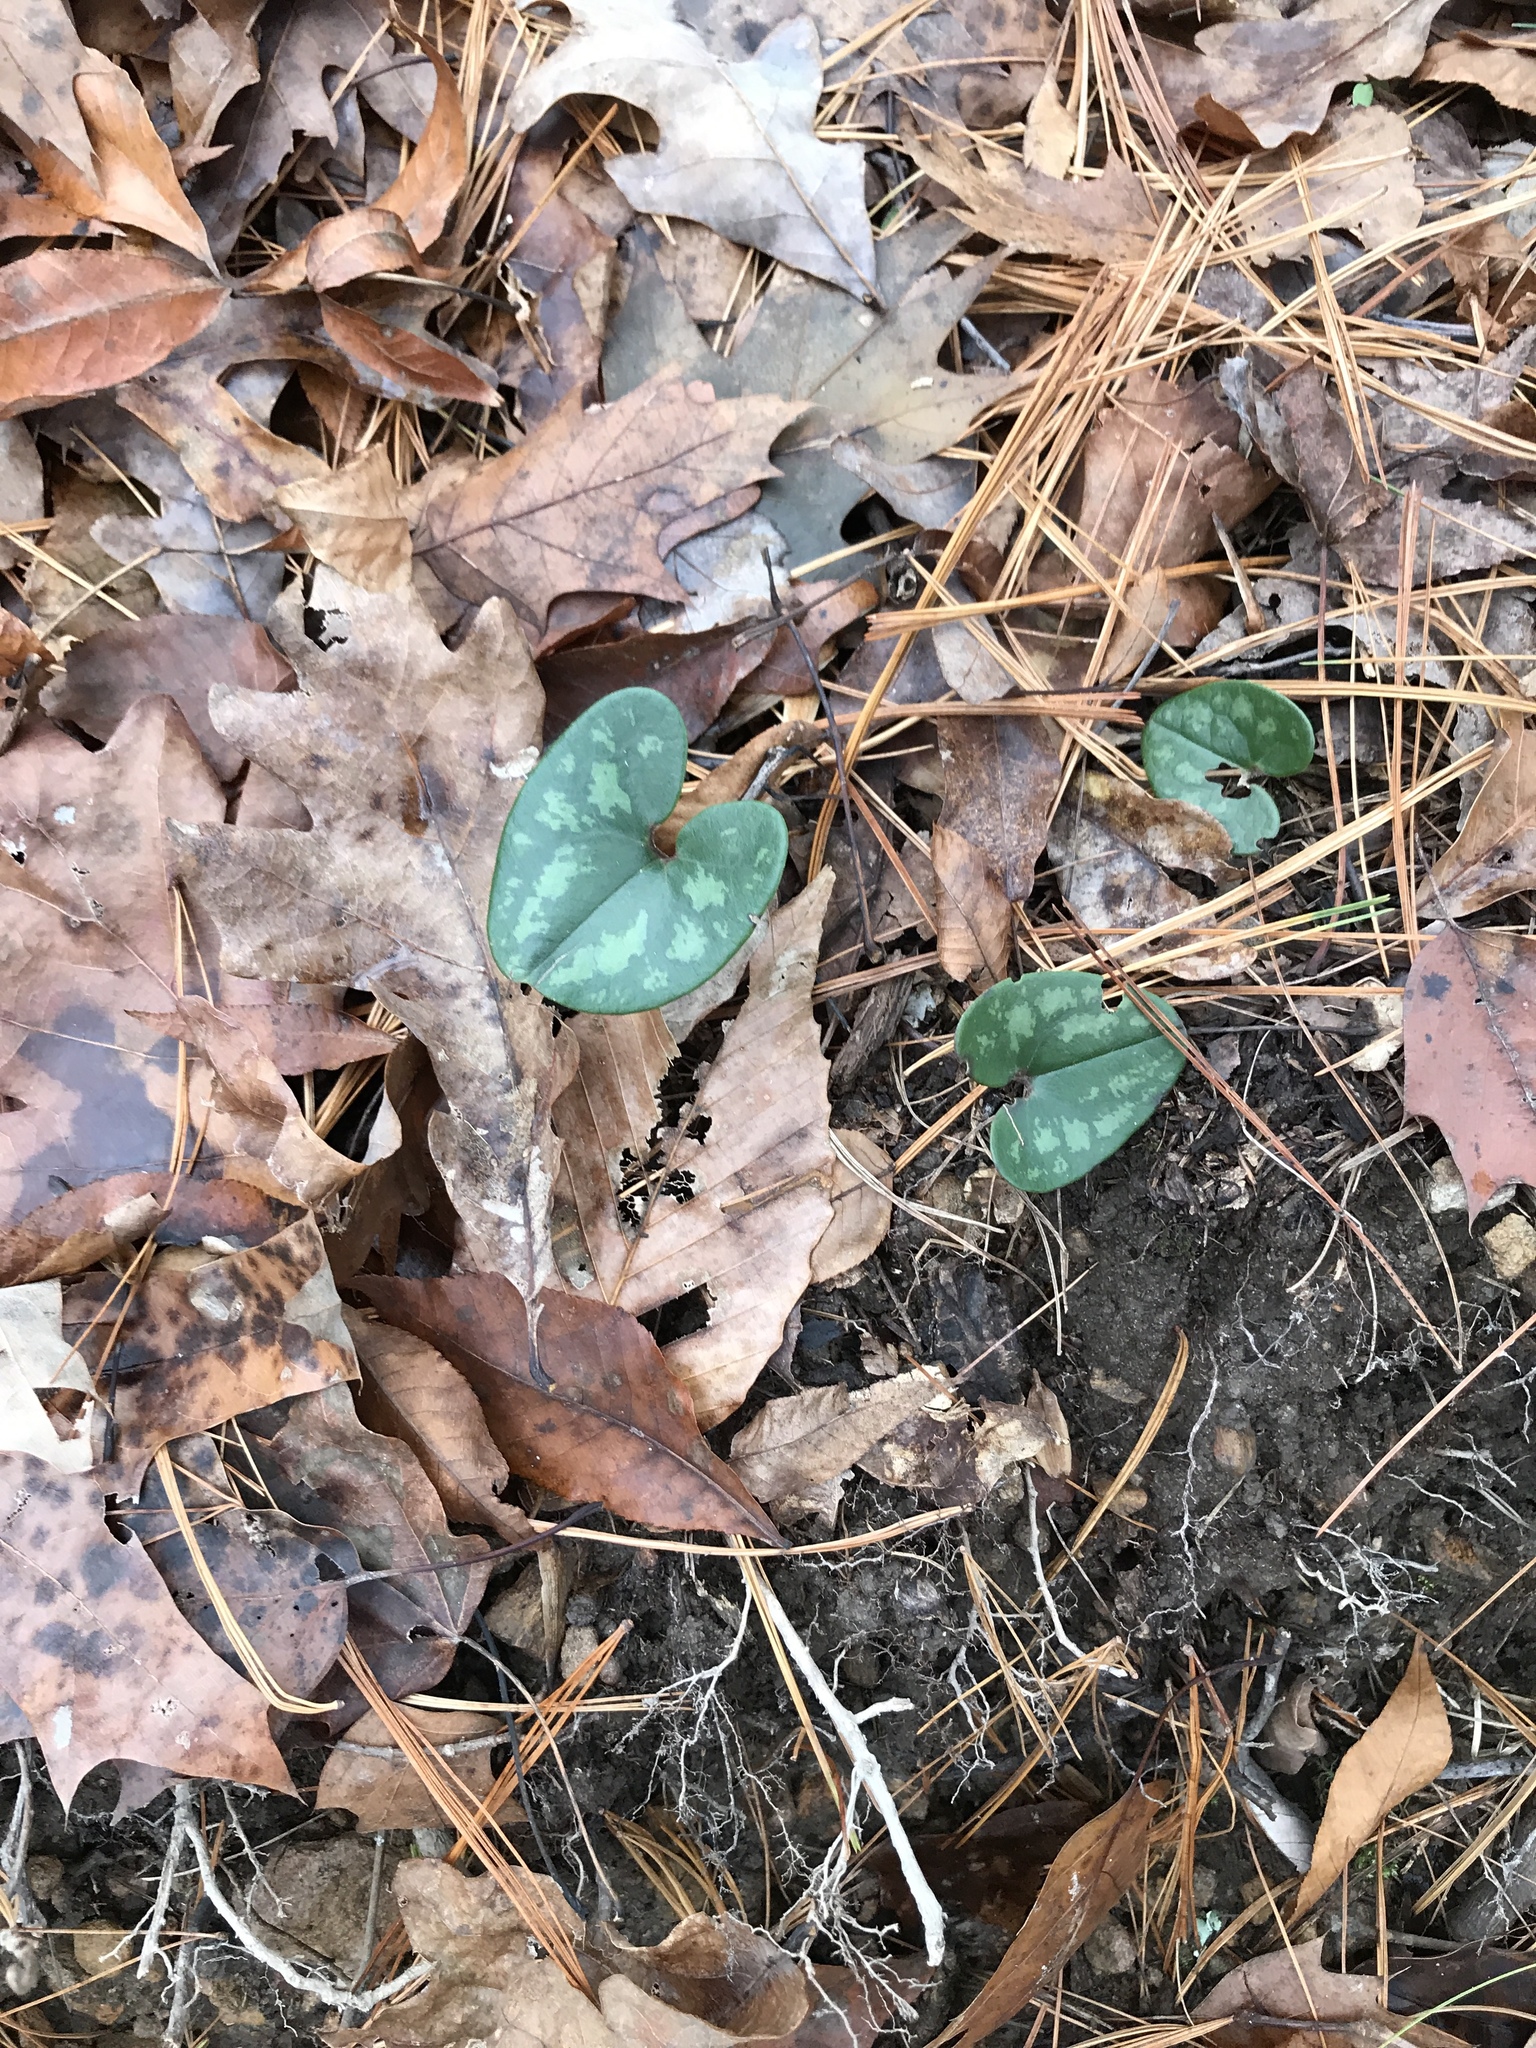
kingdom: Plantae
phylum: Tracheophyta
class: Magnoliopsida
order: Piperales
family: Aristolochiaceae
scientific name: Aristolochiaceae
